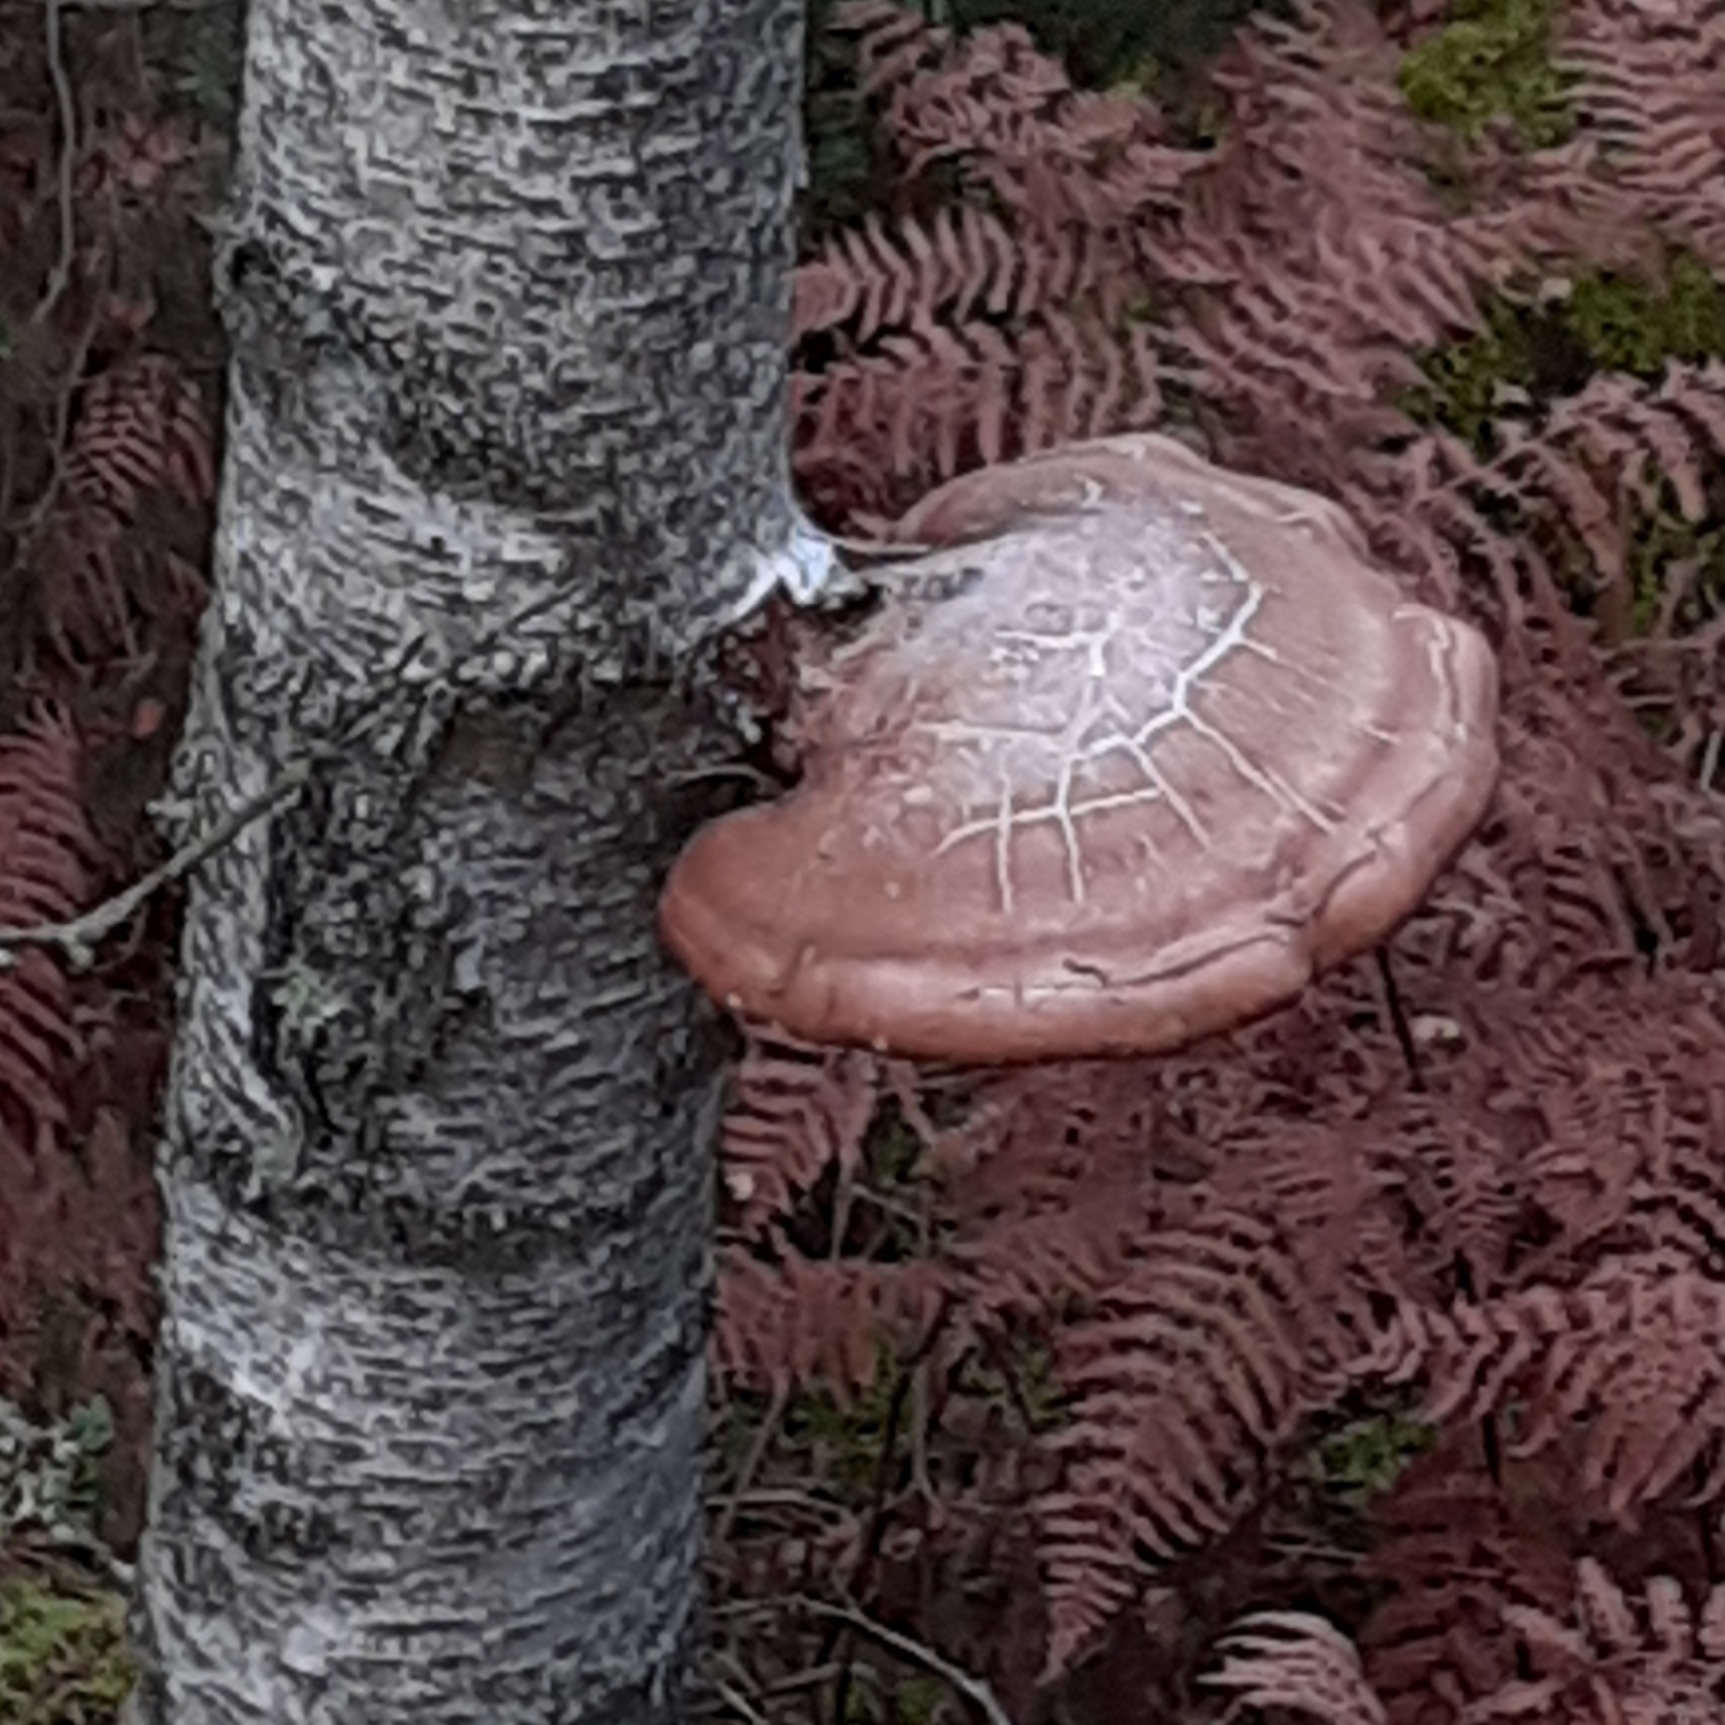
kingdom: Fungi
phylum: Basidiomycota
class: Agaricomycetes
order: Polyporales
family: Fomitopsidaceae
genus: Fomitopsis
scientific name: Fomitopsis betulina
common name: Birch polypore
